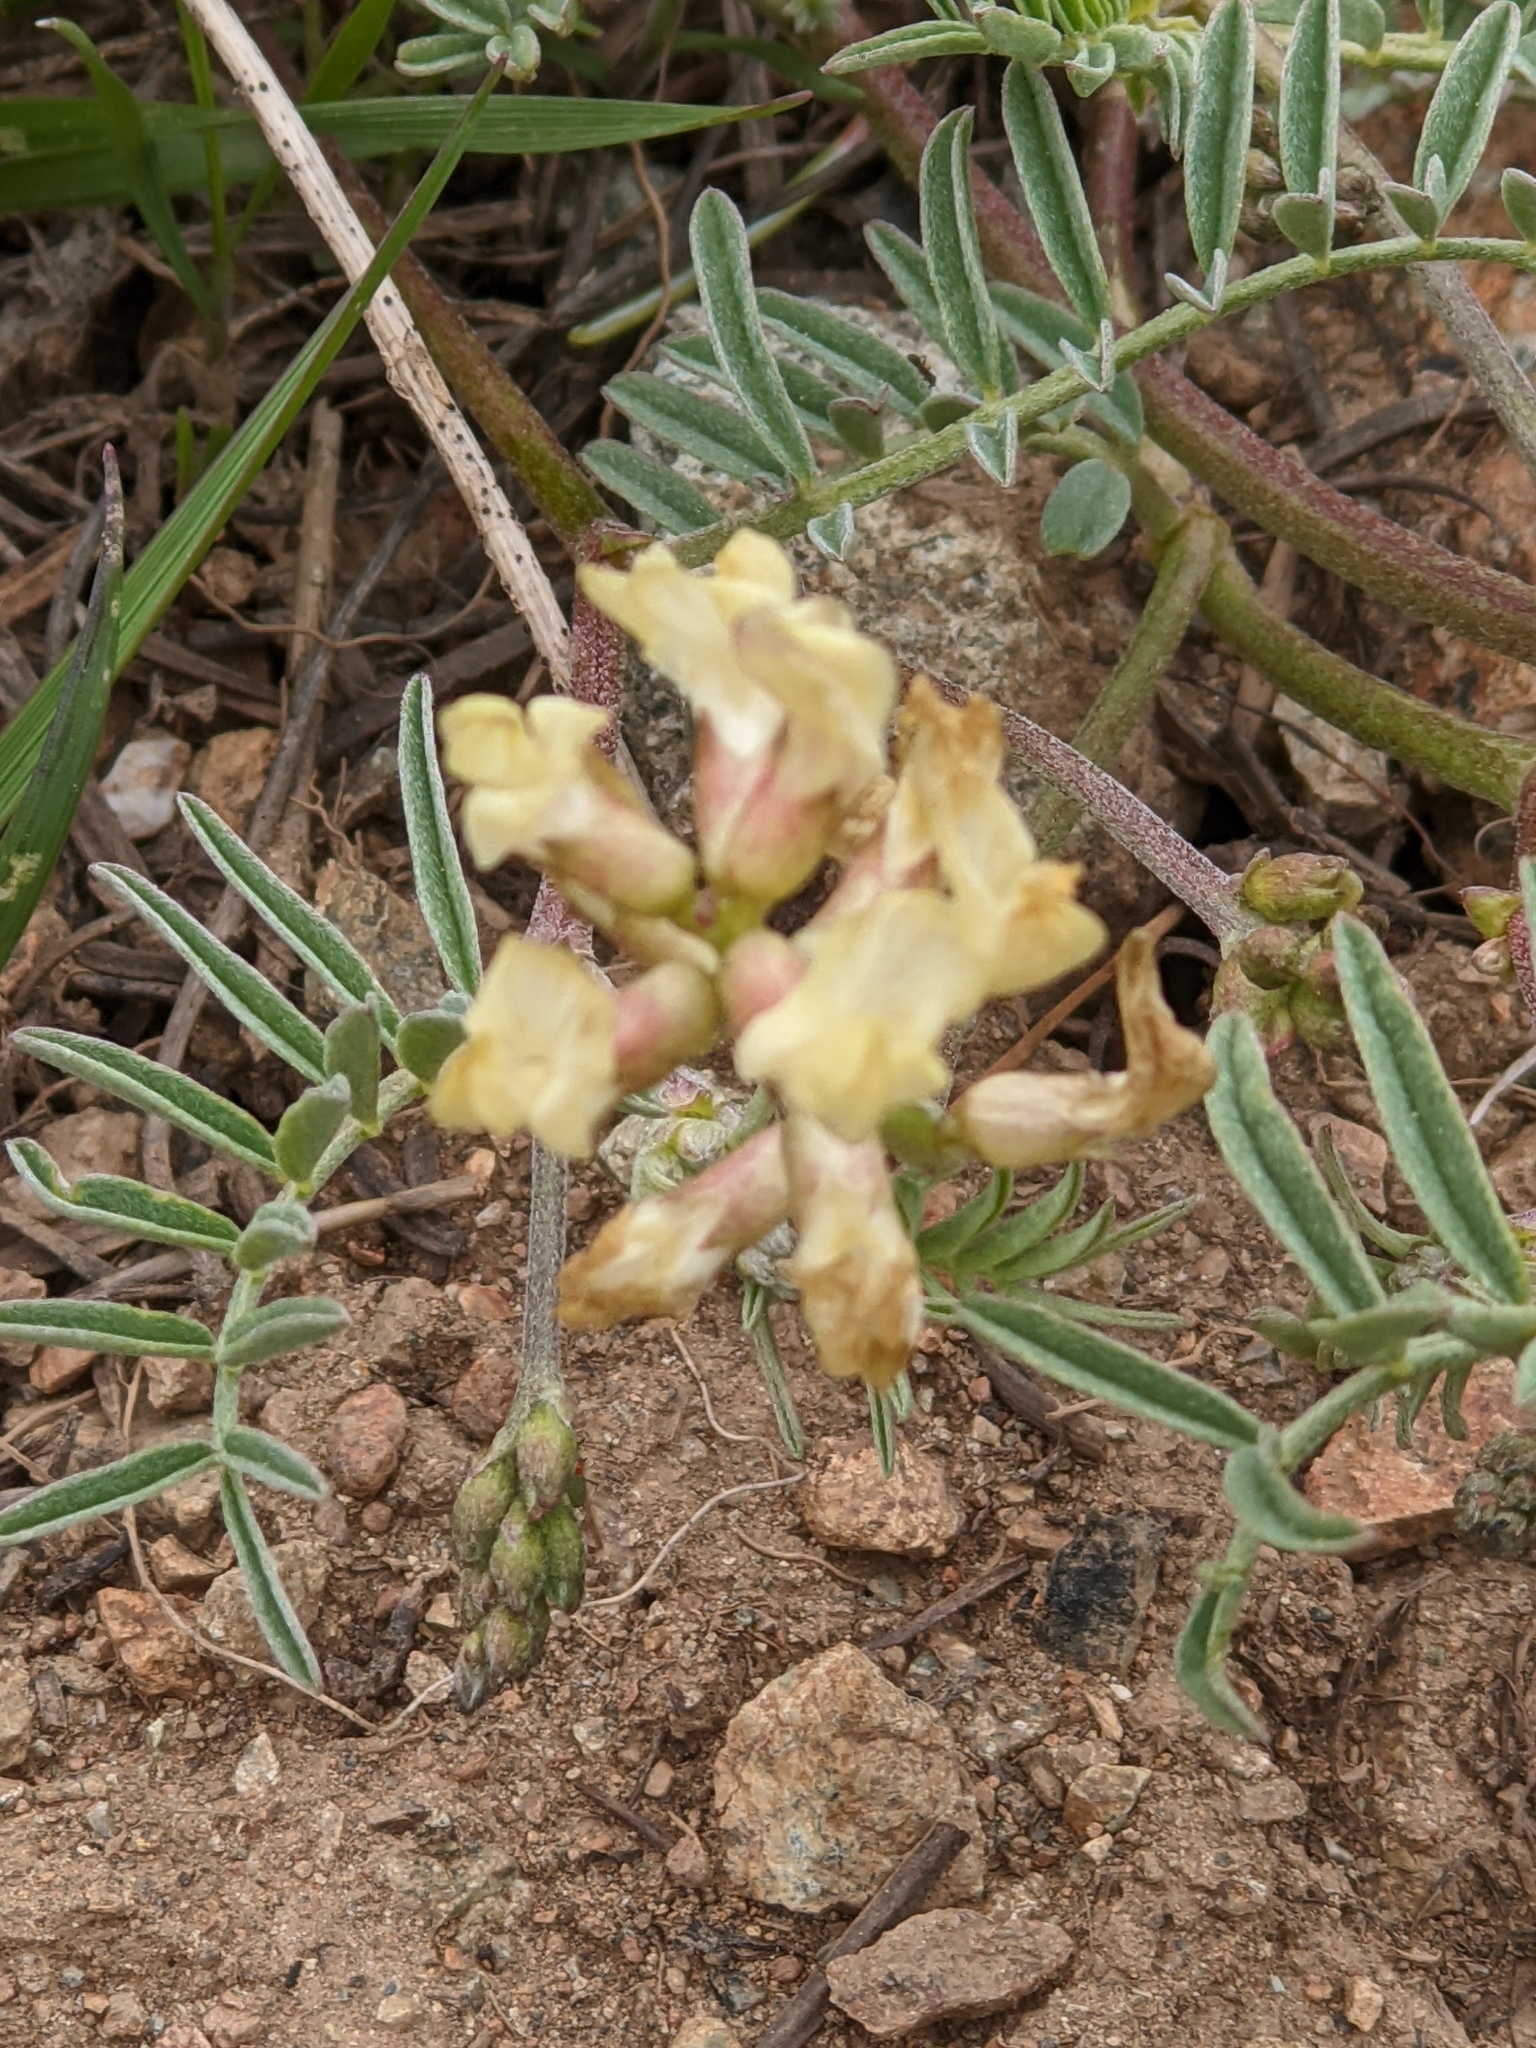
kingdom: Plantae
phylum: Tracheophyta
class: Magnoliopsida
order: Fabales
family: Fabaceae
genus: Astragalus
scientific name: Astragalus whitneyi
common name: Balloonpod milkvetch
